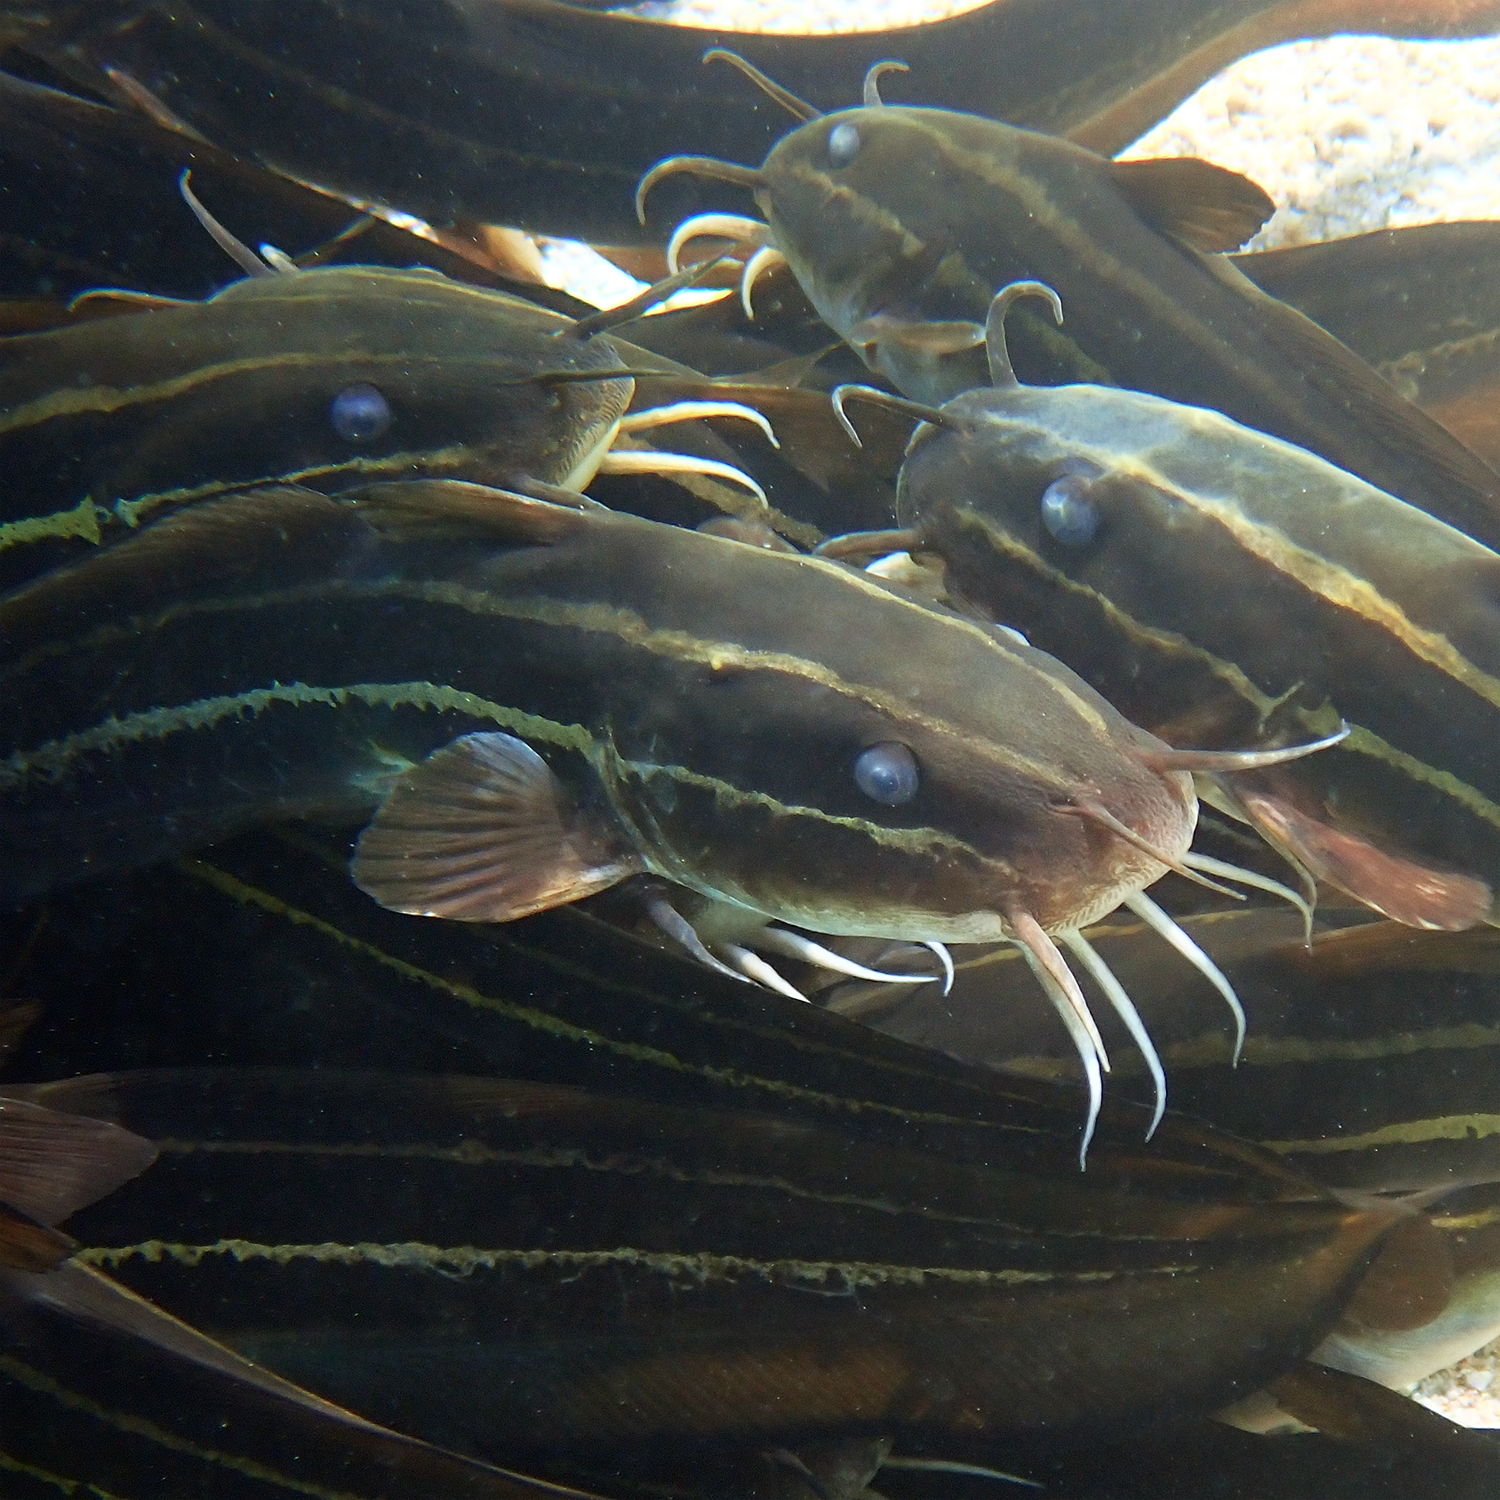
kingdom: Animalia
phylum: Chordata
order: Siluriformes
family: Plotosidae
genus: Plotosus
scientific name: Plotosus lineatus
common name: Striped eel catfish
